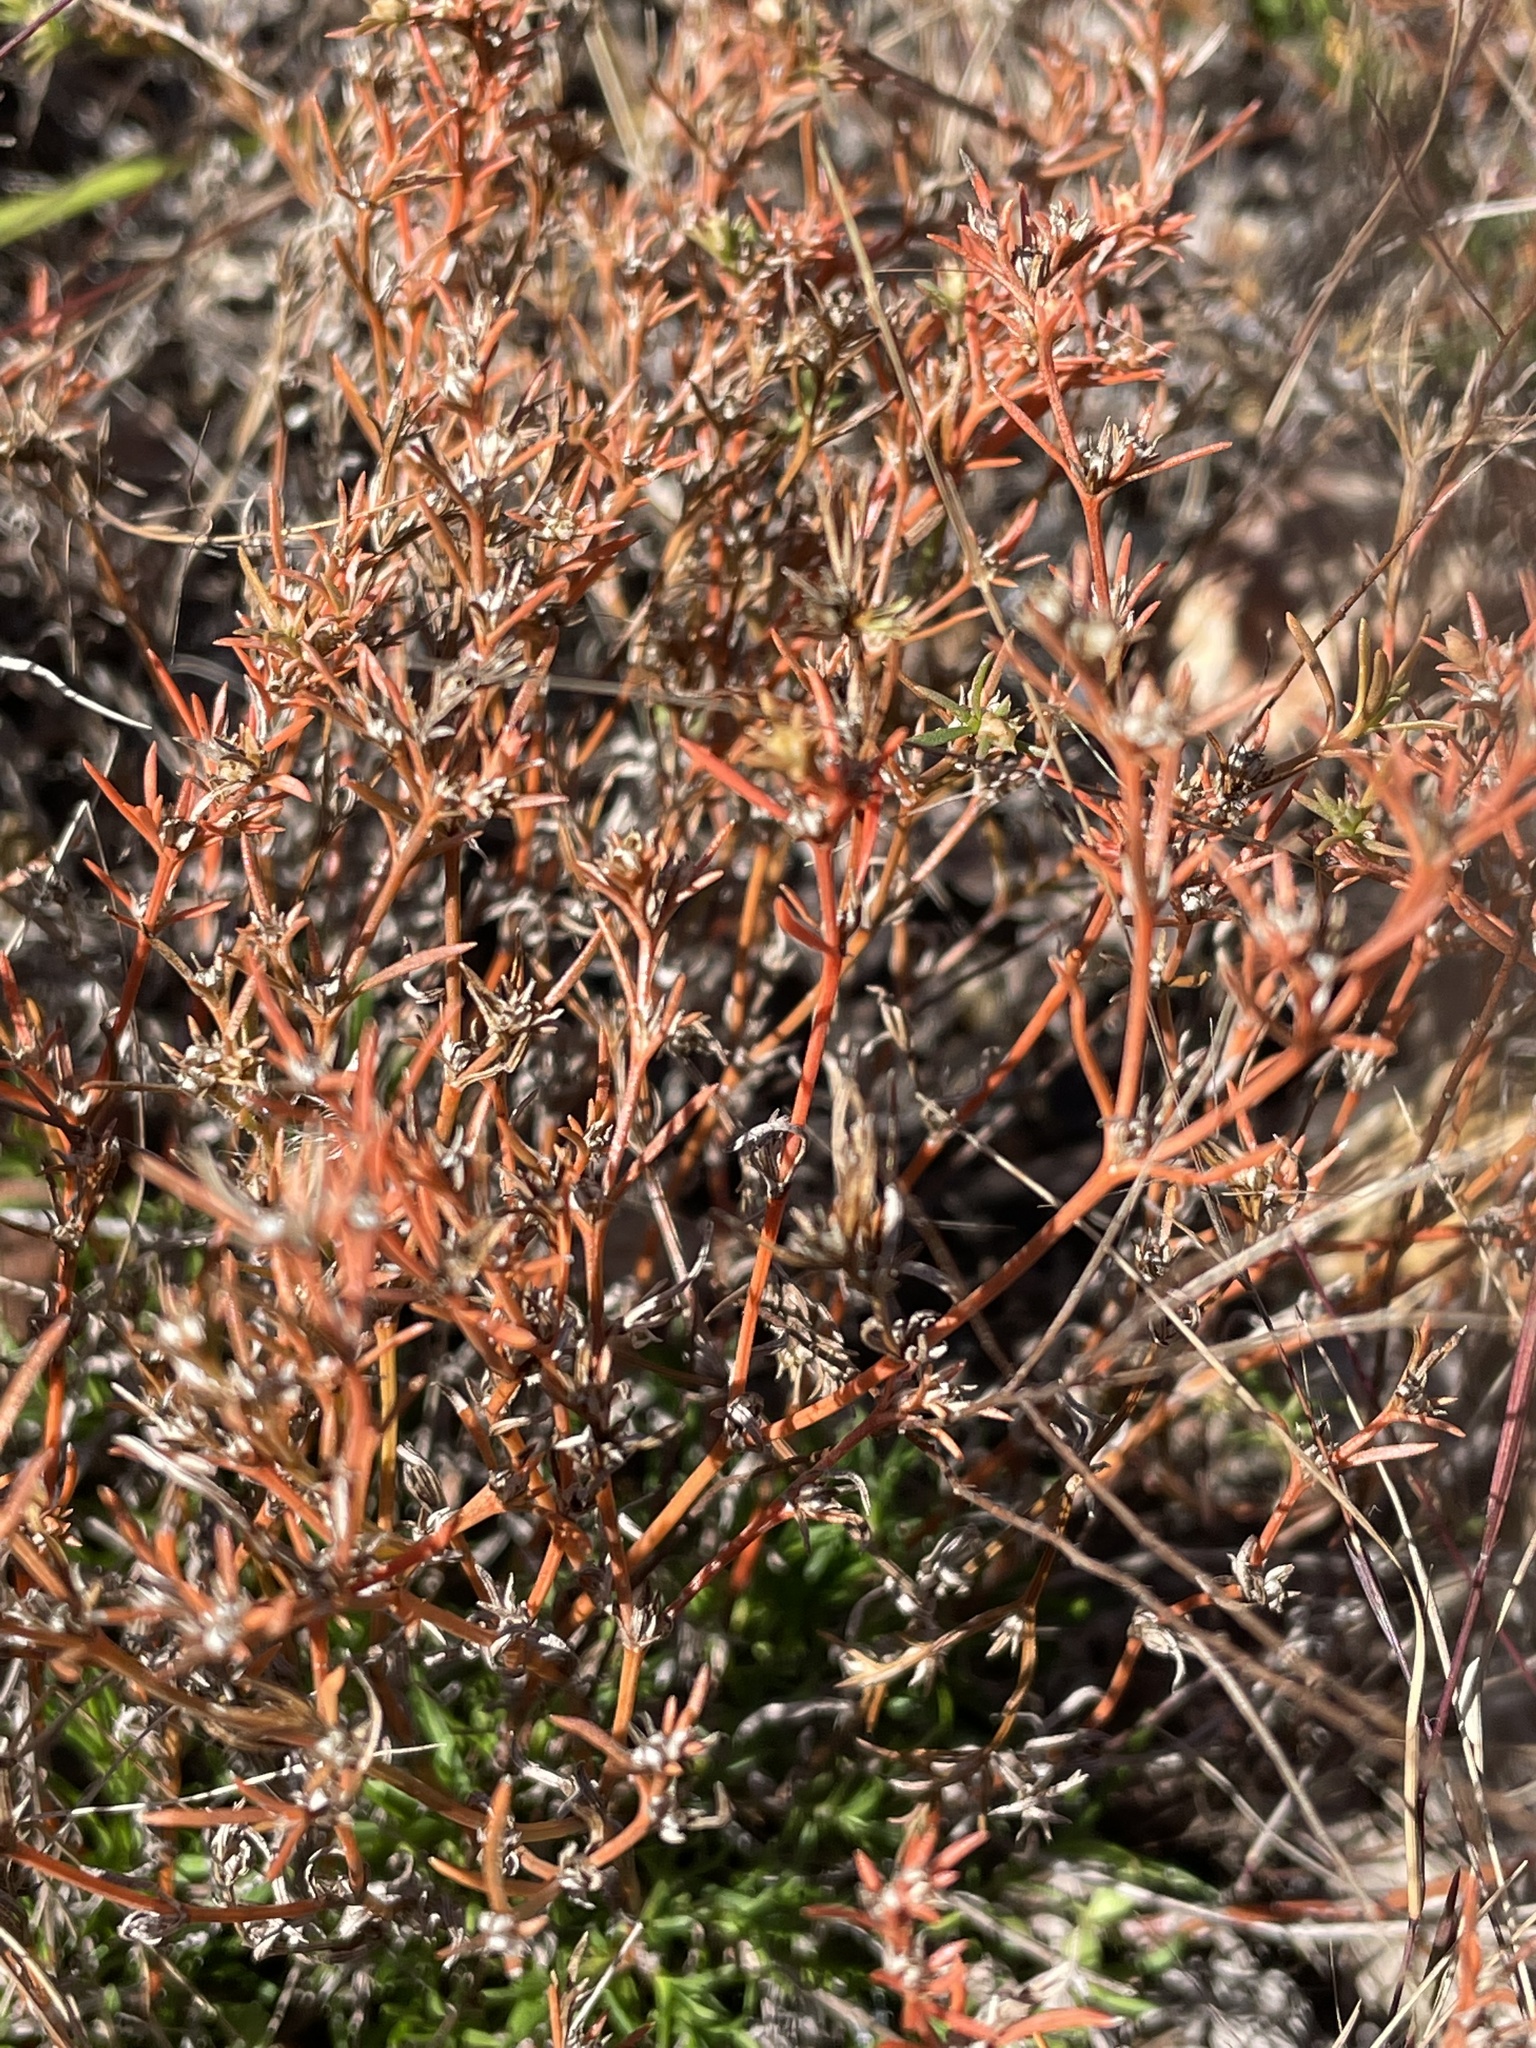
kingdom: Plantae
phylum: Tracheophyta
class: Magnoliopsida
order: Lamiales
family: Tetrachondraceae
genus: Polypremum
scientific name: Polypremum procumbens
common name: Juniper-leaf
